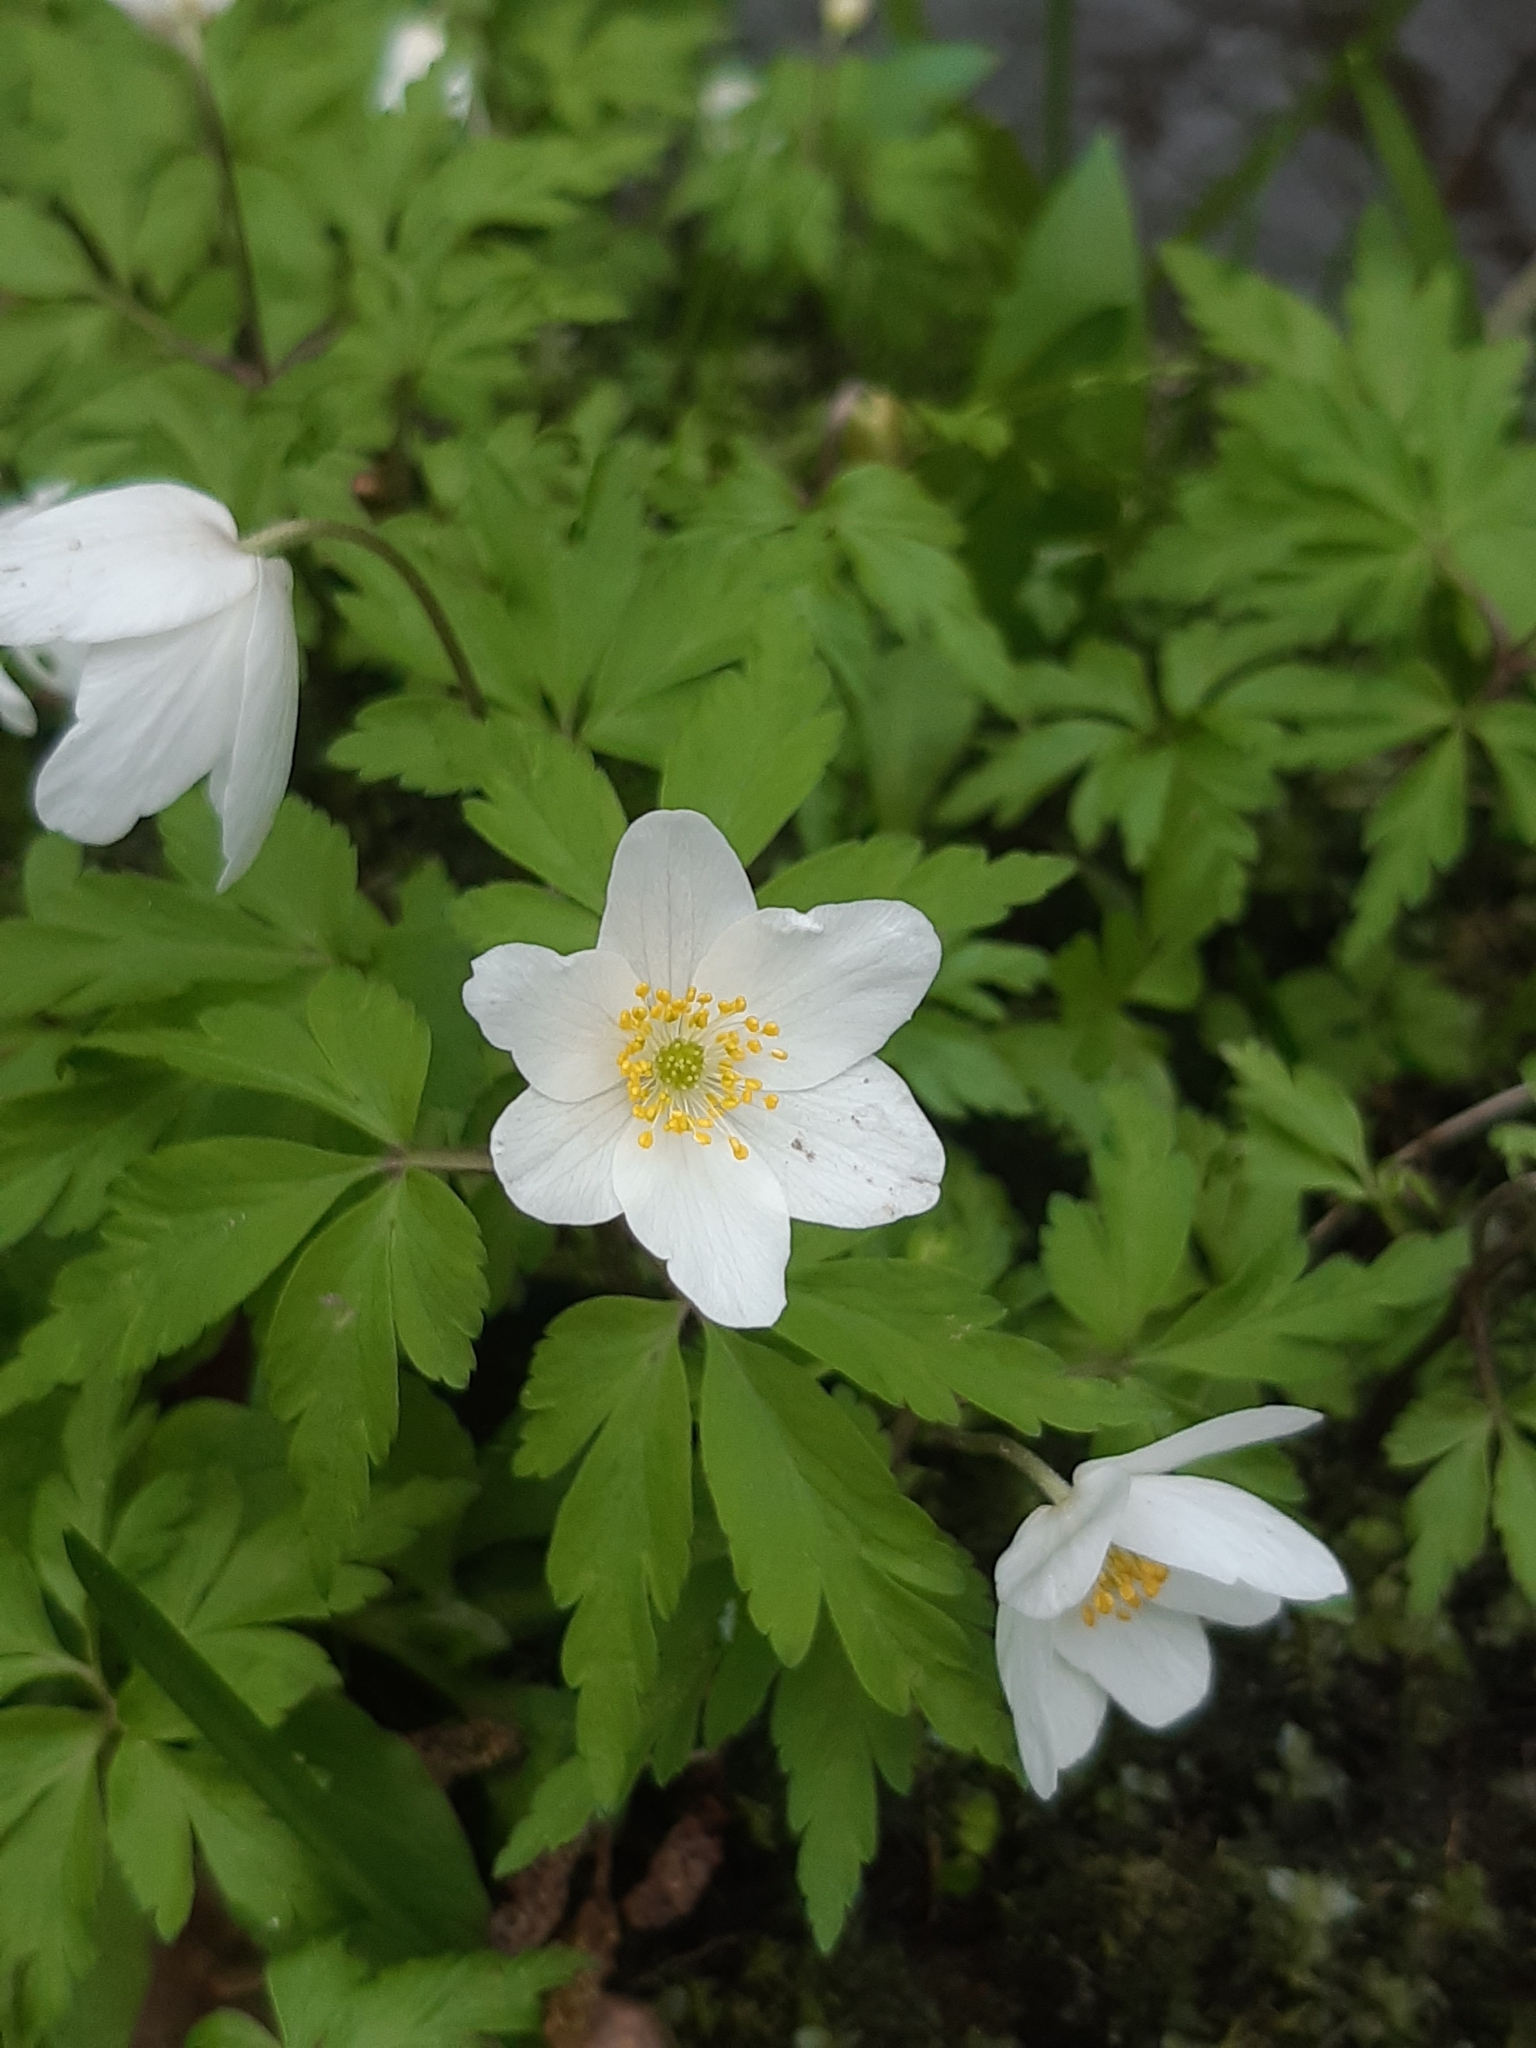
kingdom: Plantae
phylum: Tracheophyta
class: Magnoliopsida
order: Ranunculales
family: Ranunculaceae
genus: Anemone
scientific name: Anemone nemorosa
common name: Wood anemone
